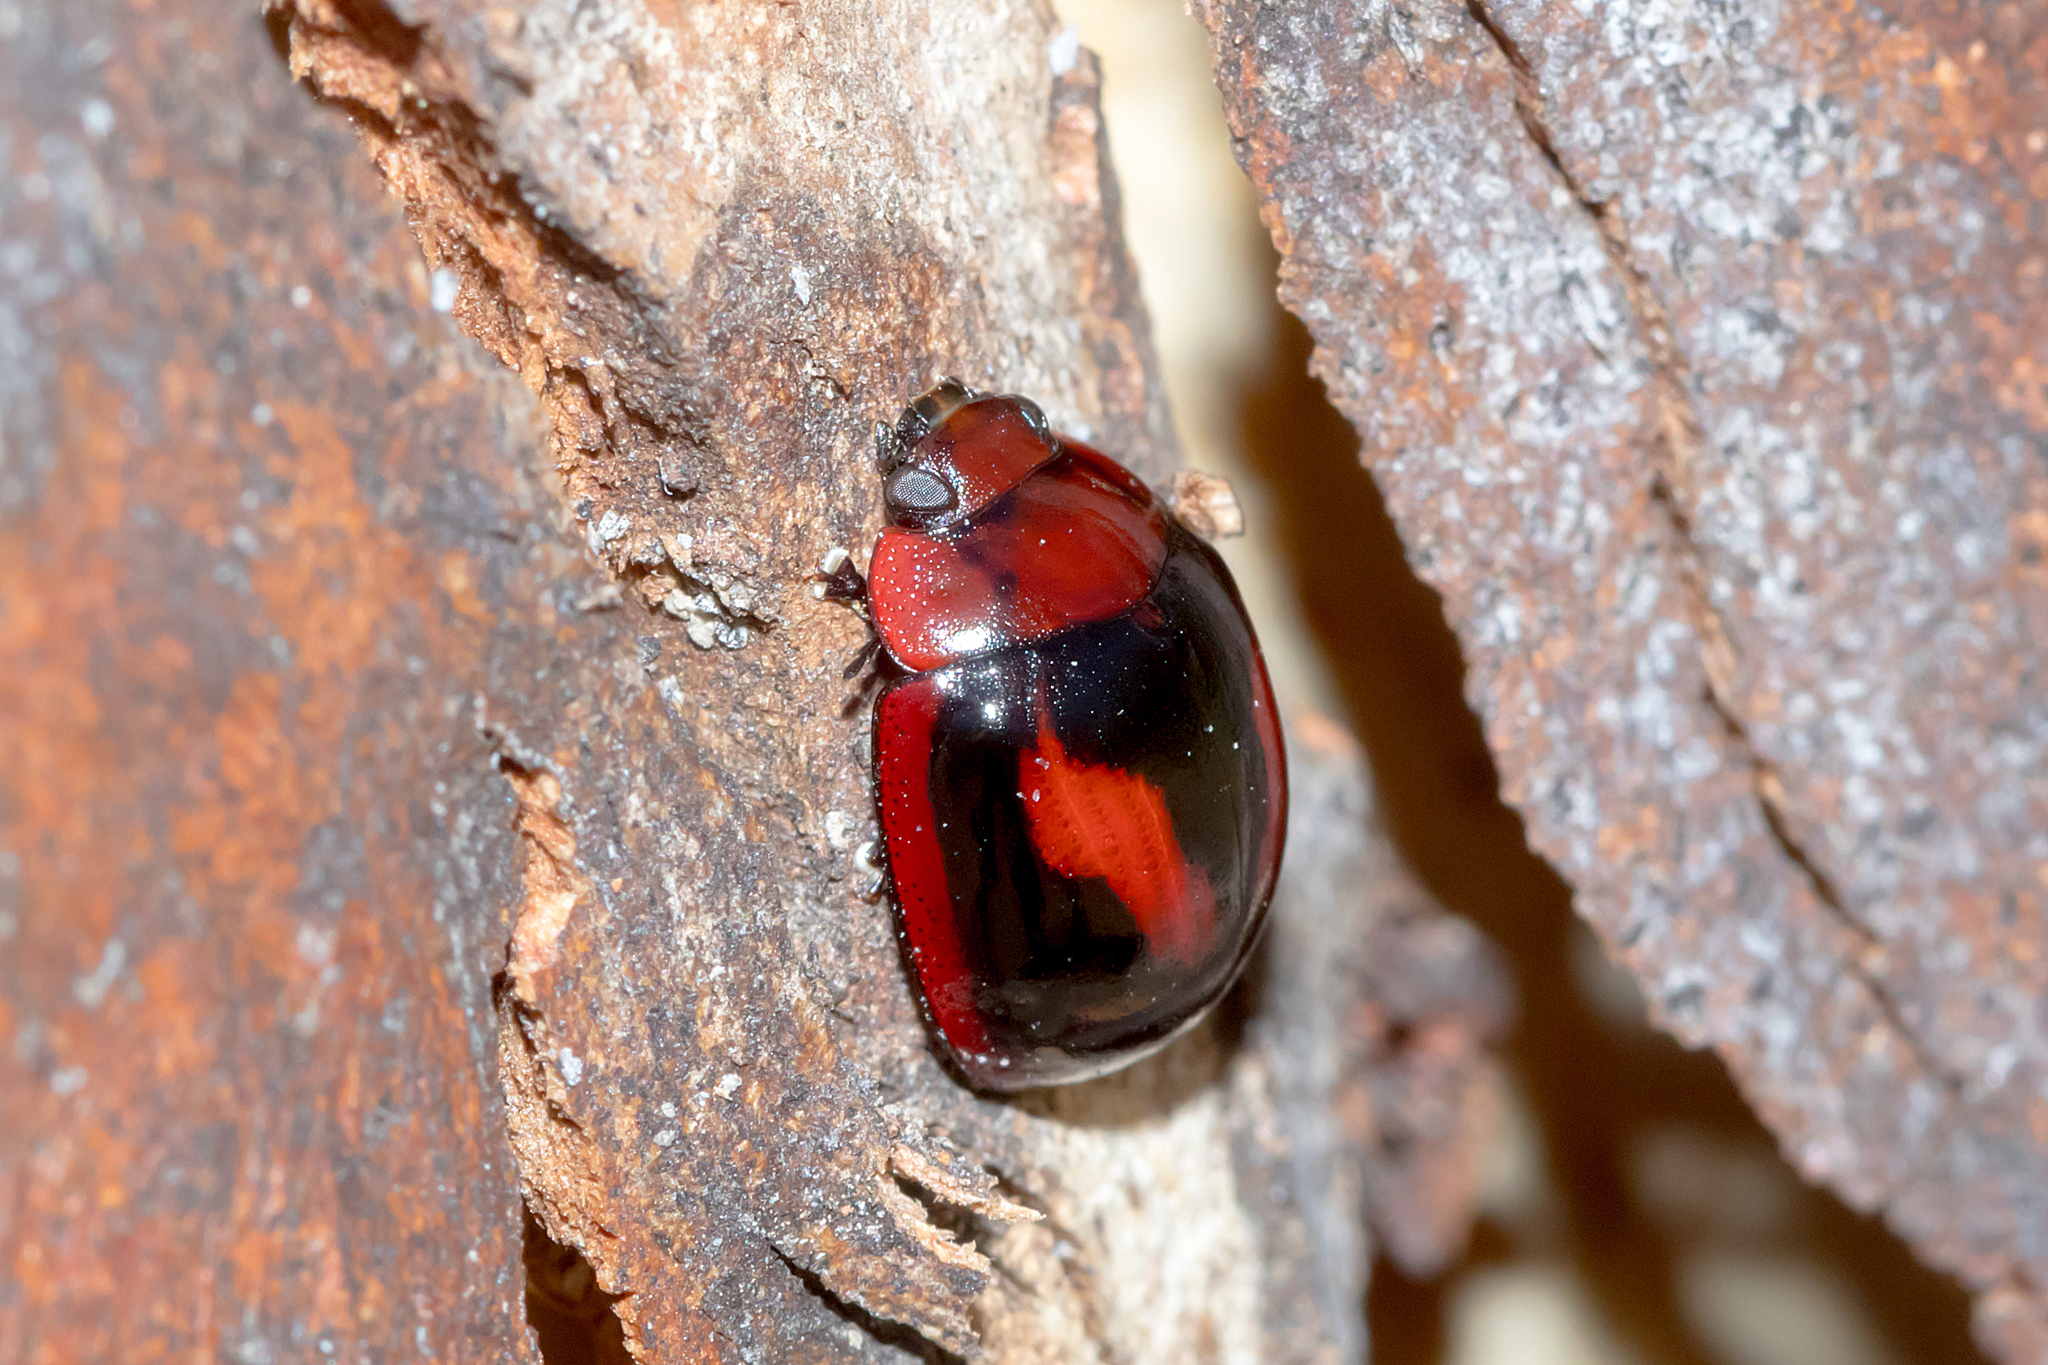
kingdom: Animalia
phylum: Arthropoda
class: Insecta
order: Coleoptera
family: Chrysomelidae
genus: Paropsisterna
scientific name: Paropsisterna
